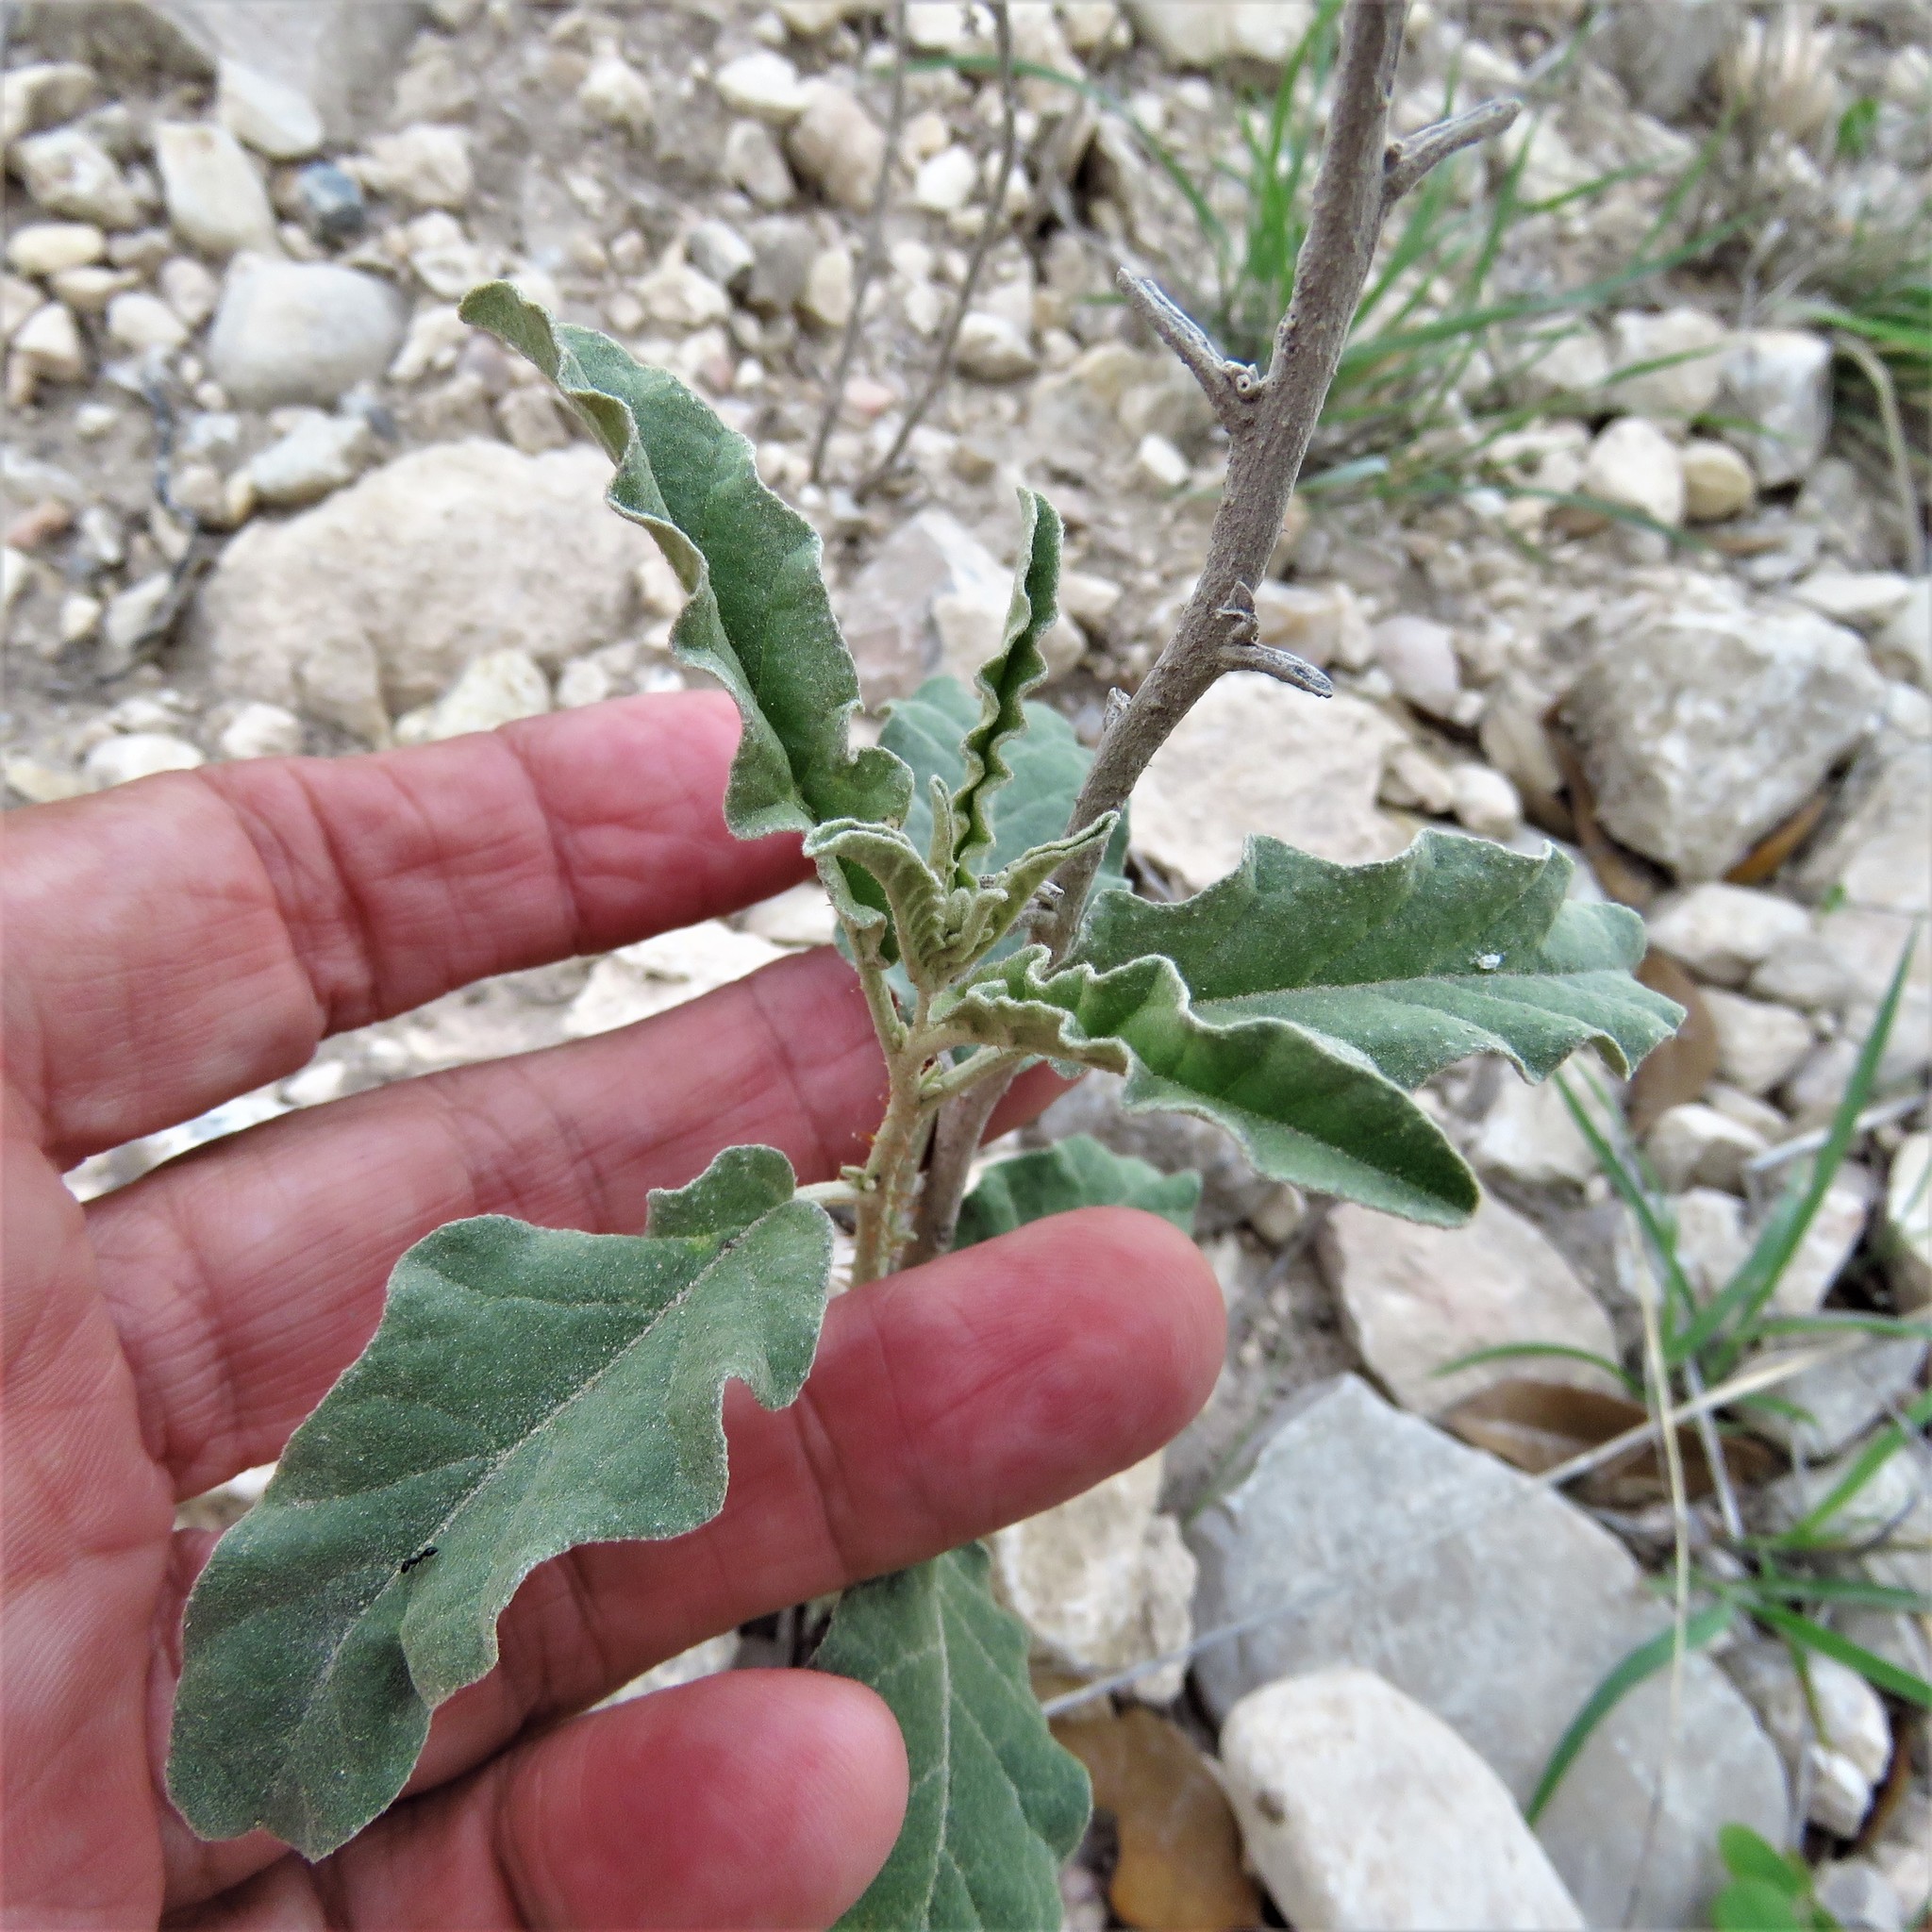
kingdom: Plantae
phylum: Tracheophyta
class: Magnoliopsida
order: Solanales
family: Solanaceae
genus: Solanum
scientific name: Solanum elaeagnifolium
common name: Silverleaf nightshade
